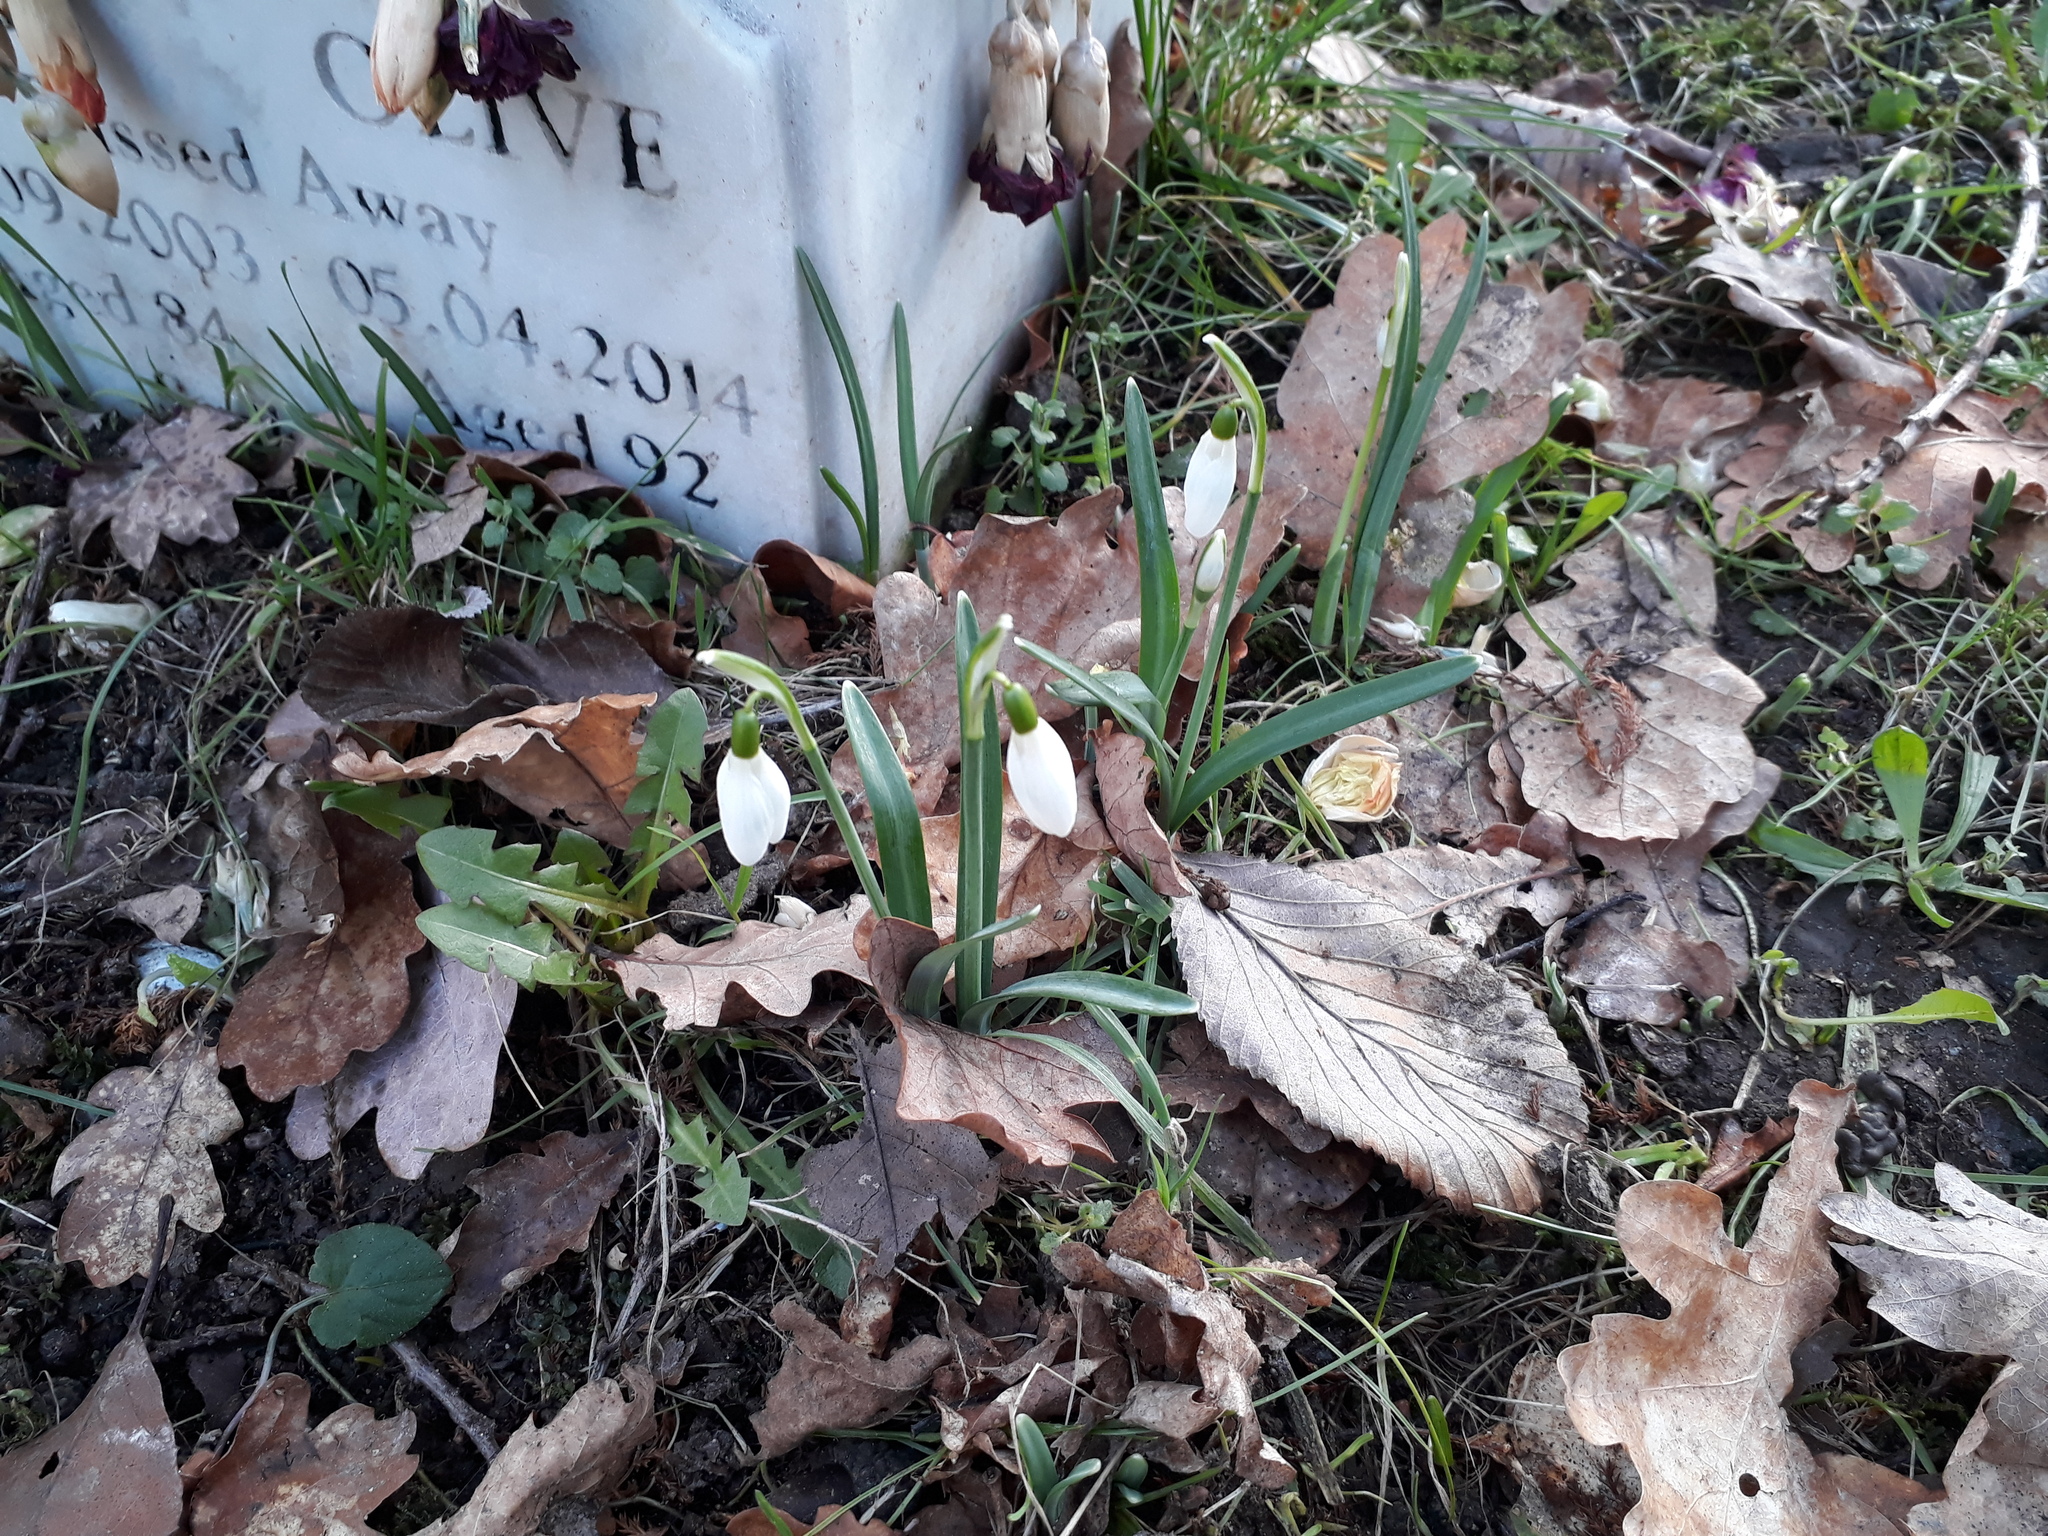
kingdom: Plantae
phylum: Tracheophyta
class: Liliopsida
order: Asparagales
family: Amaryllidaceae
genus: Galanthus
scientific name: Galanthus nivalis
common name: Snowdrop
